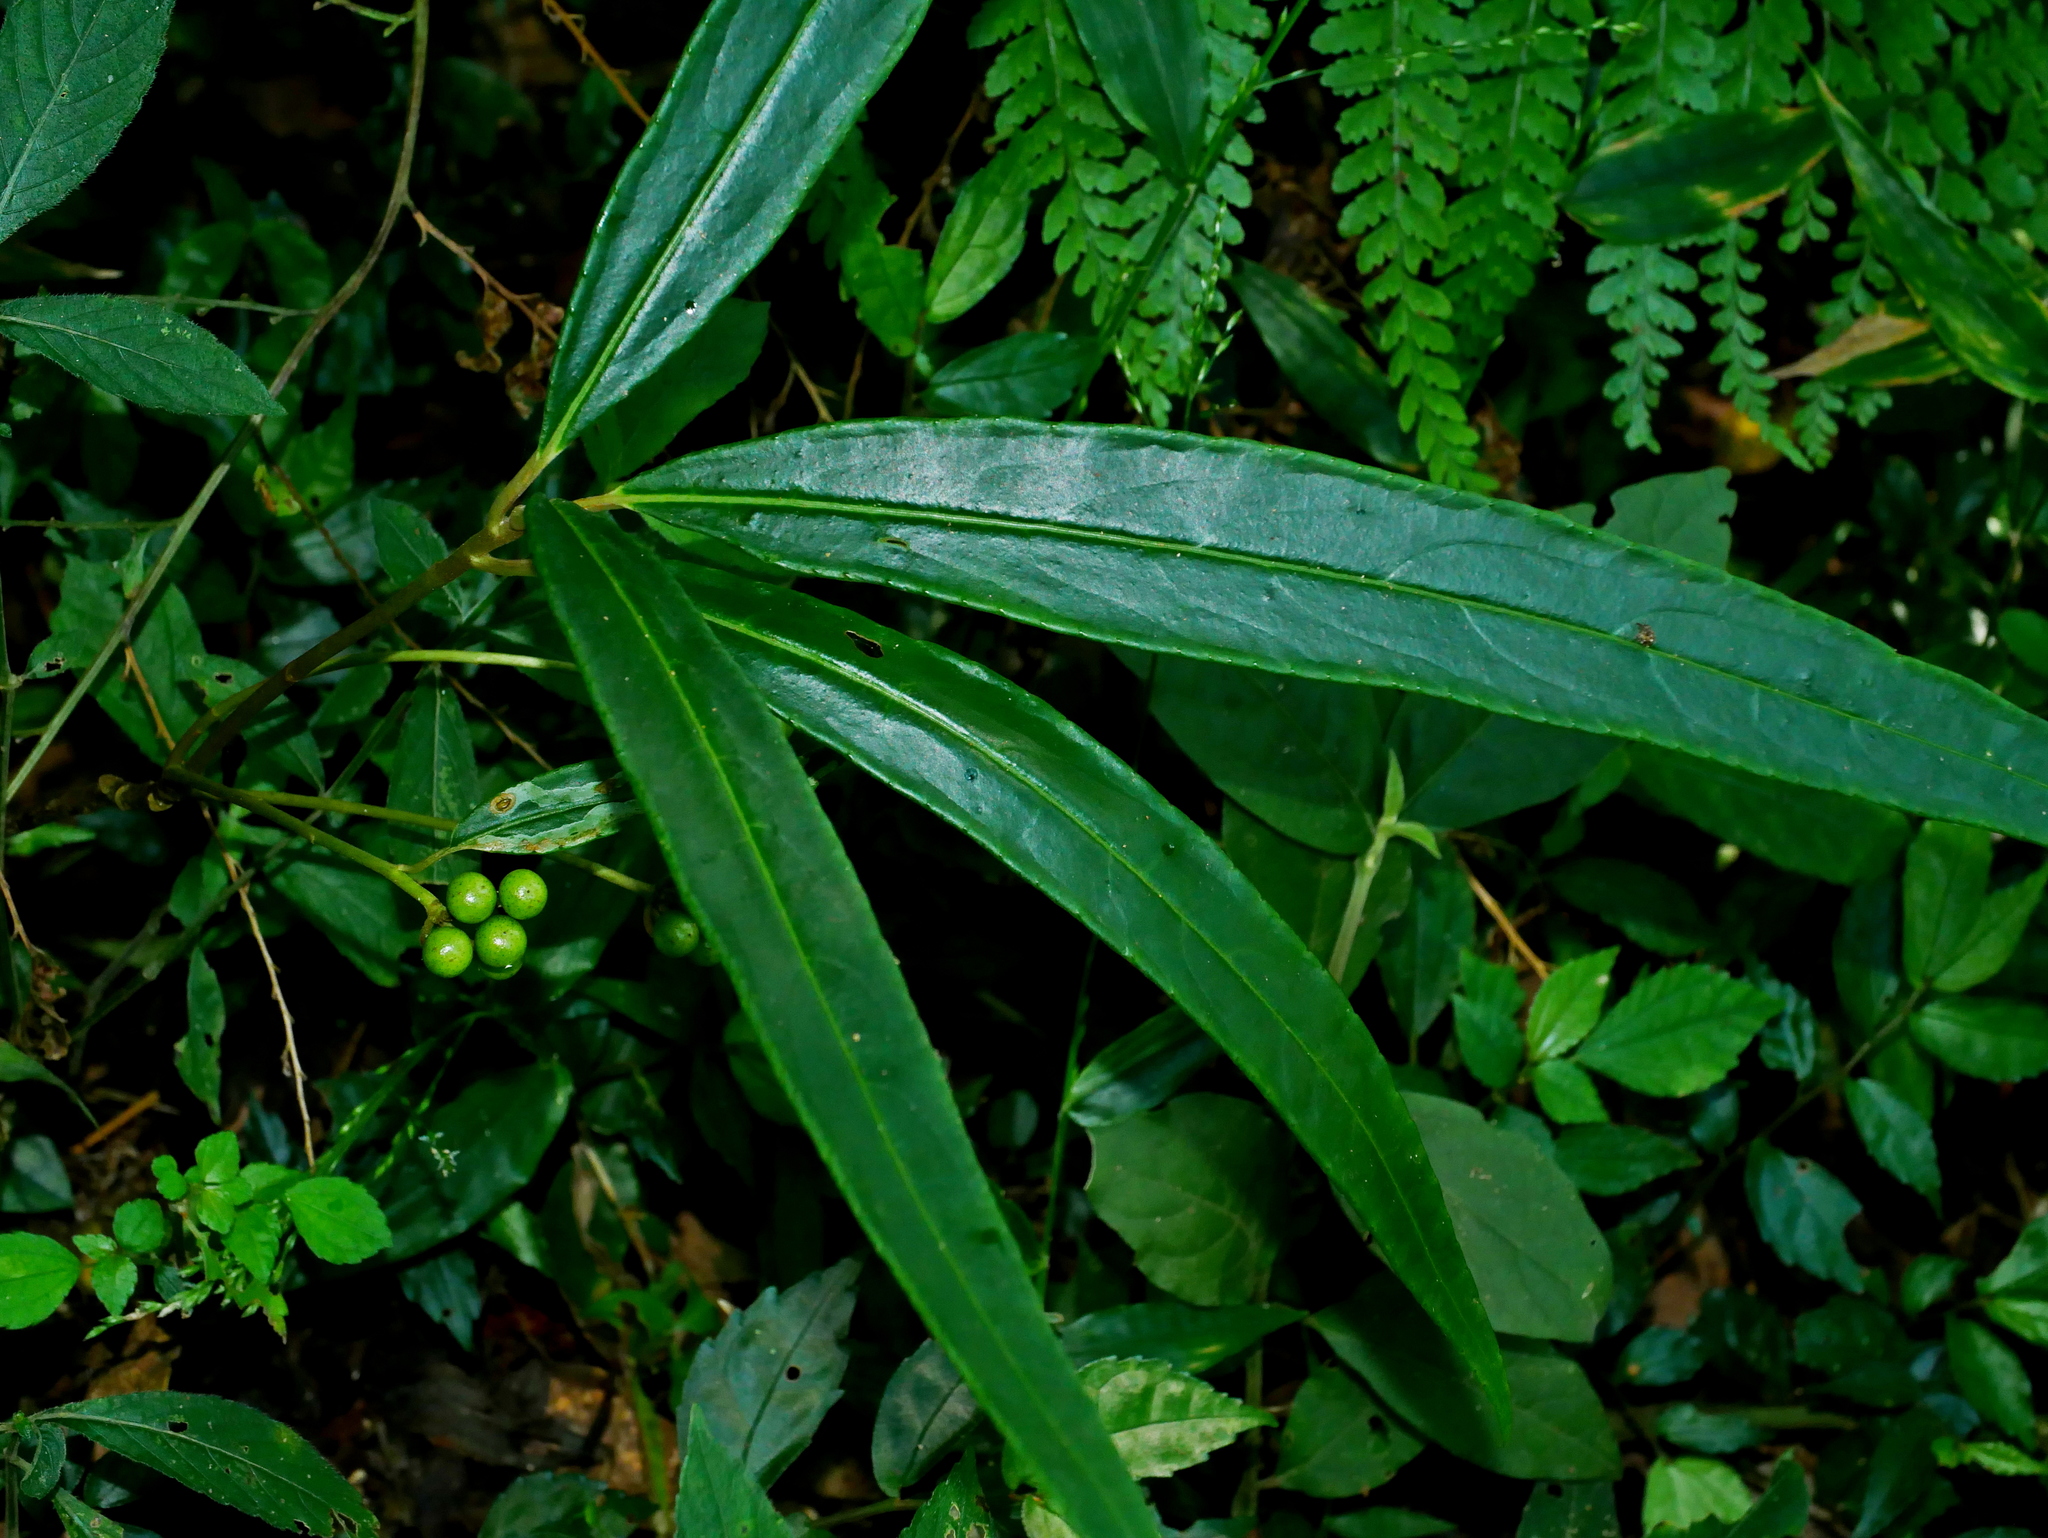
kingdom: Plantae
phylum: Tracheophyta
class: Magnoliopsida
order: Ericales
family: Primulaceae
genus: Ardisia
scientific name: Ardisia crispa
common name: Japanese-holly
